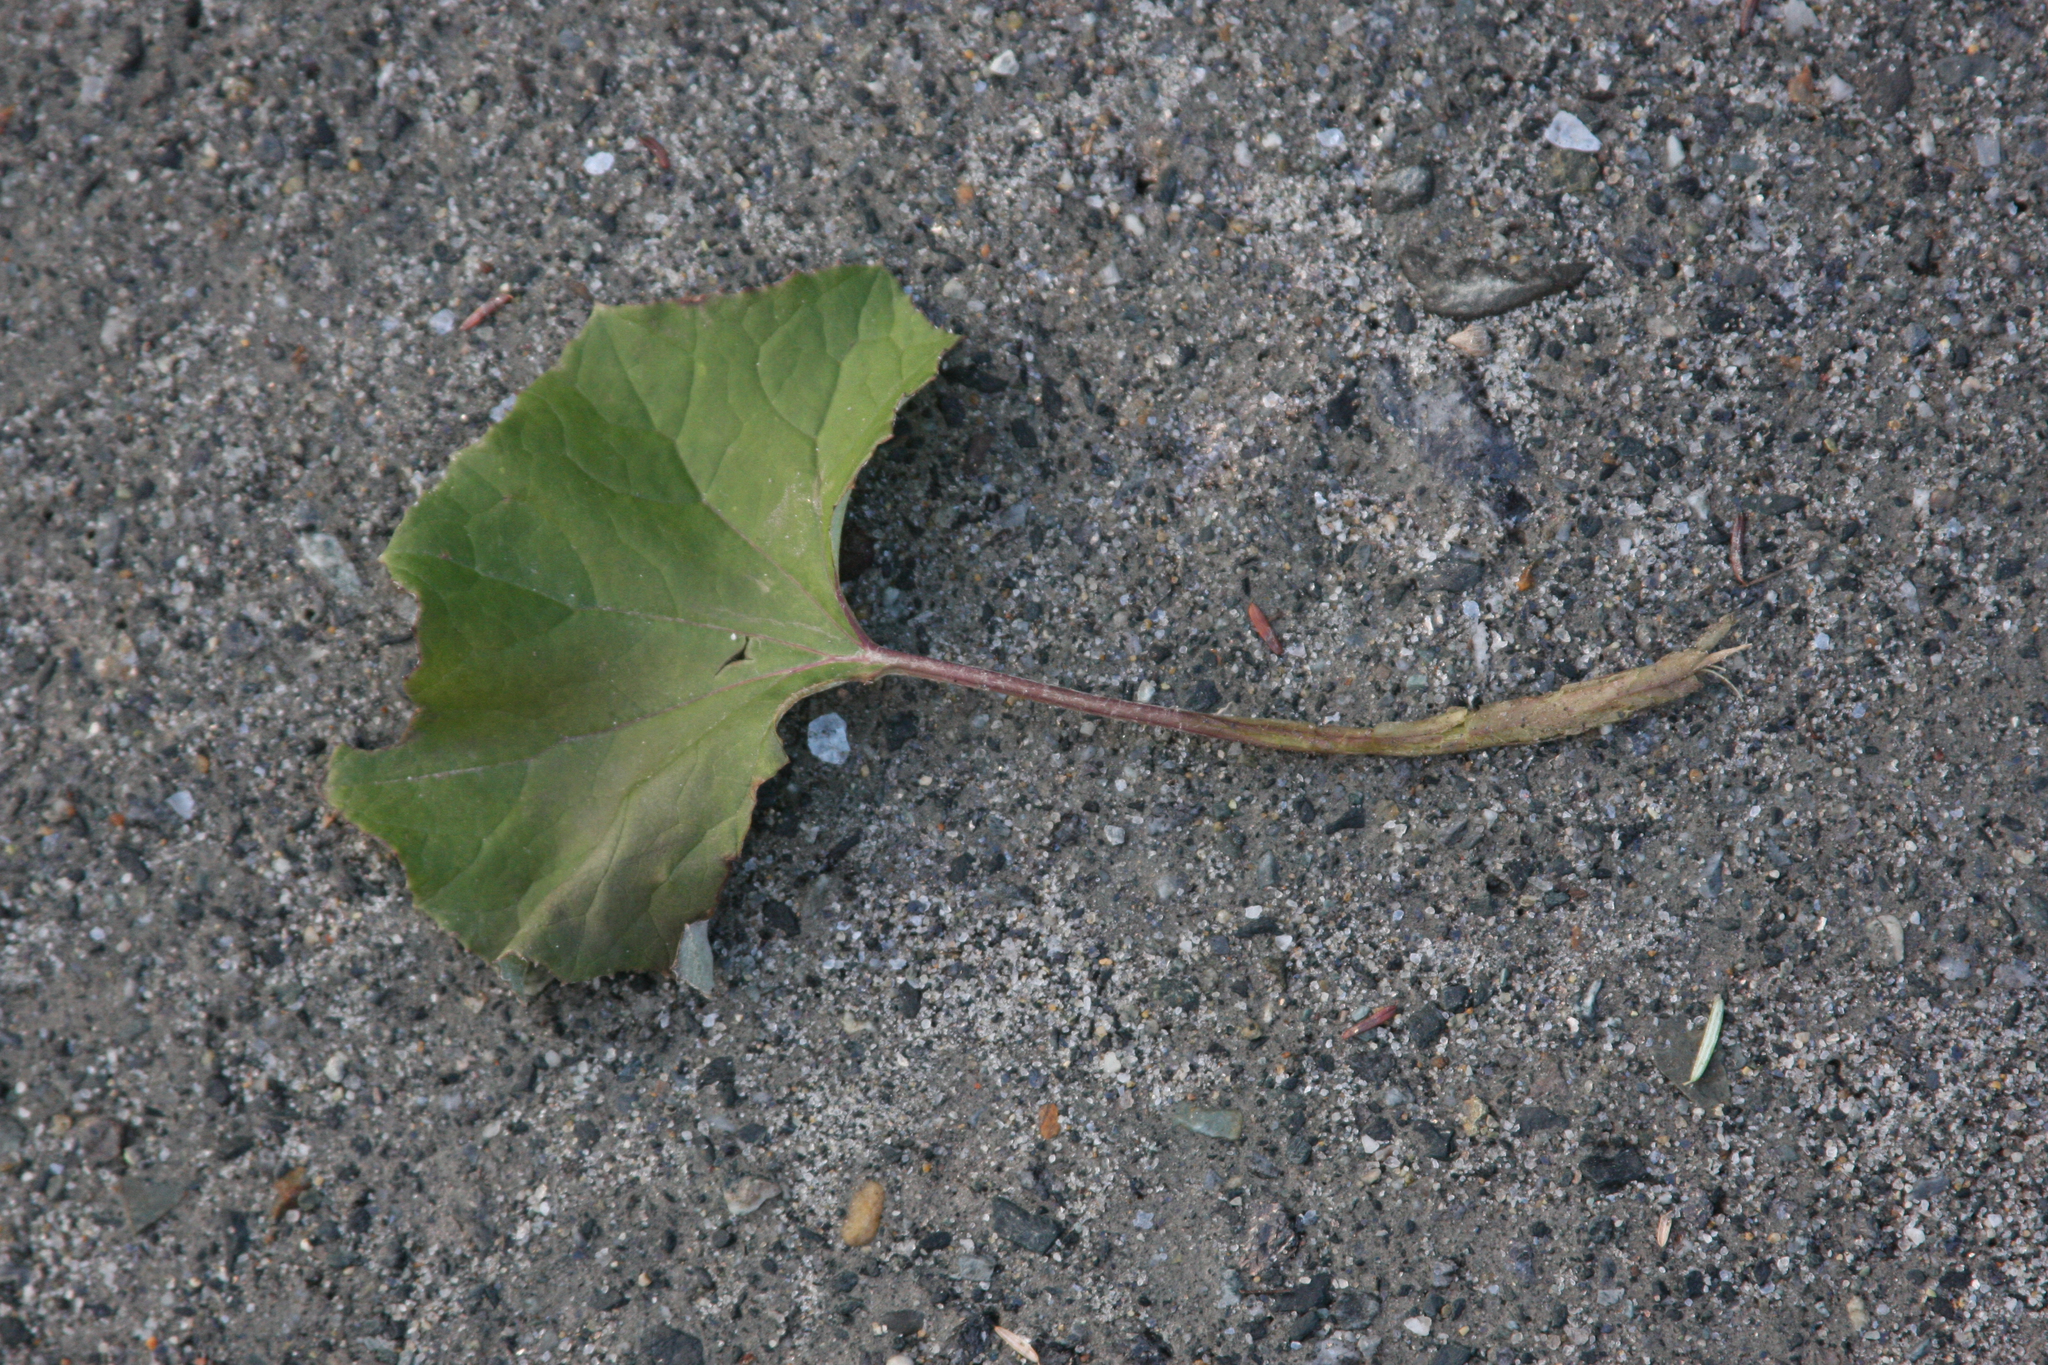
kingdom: Plantae
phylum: Tracheophyta
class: Magnoliopsida
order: Asterales
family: Asteraceae
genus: Tussilago
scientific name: Tussilago farfara
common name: Coltsfoot
